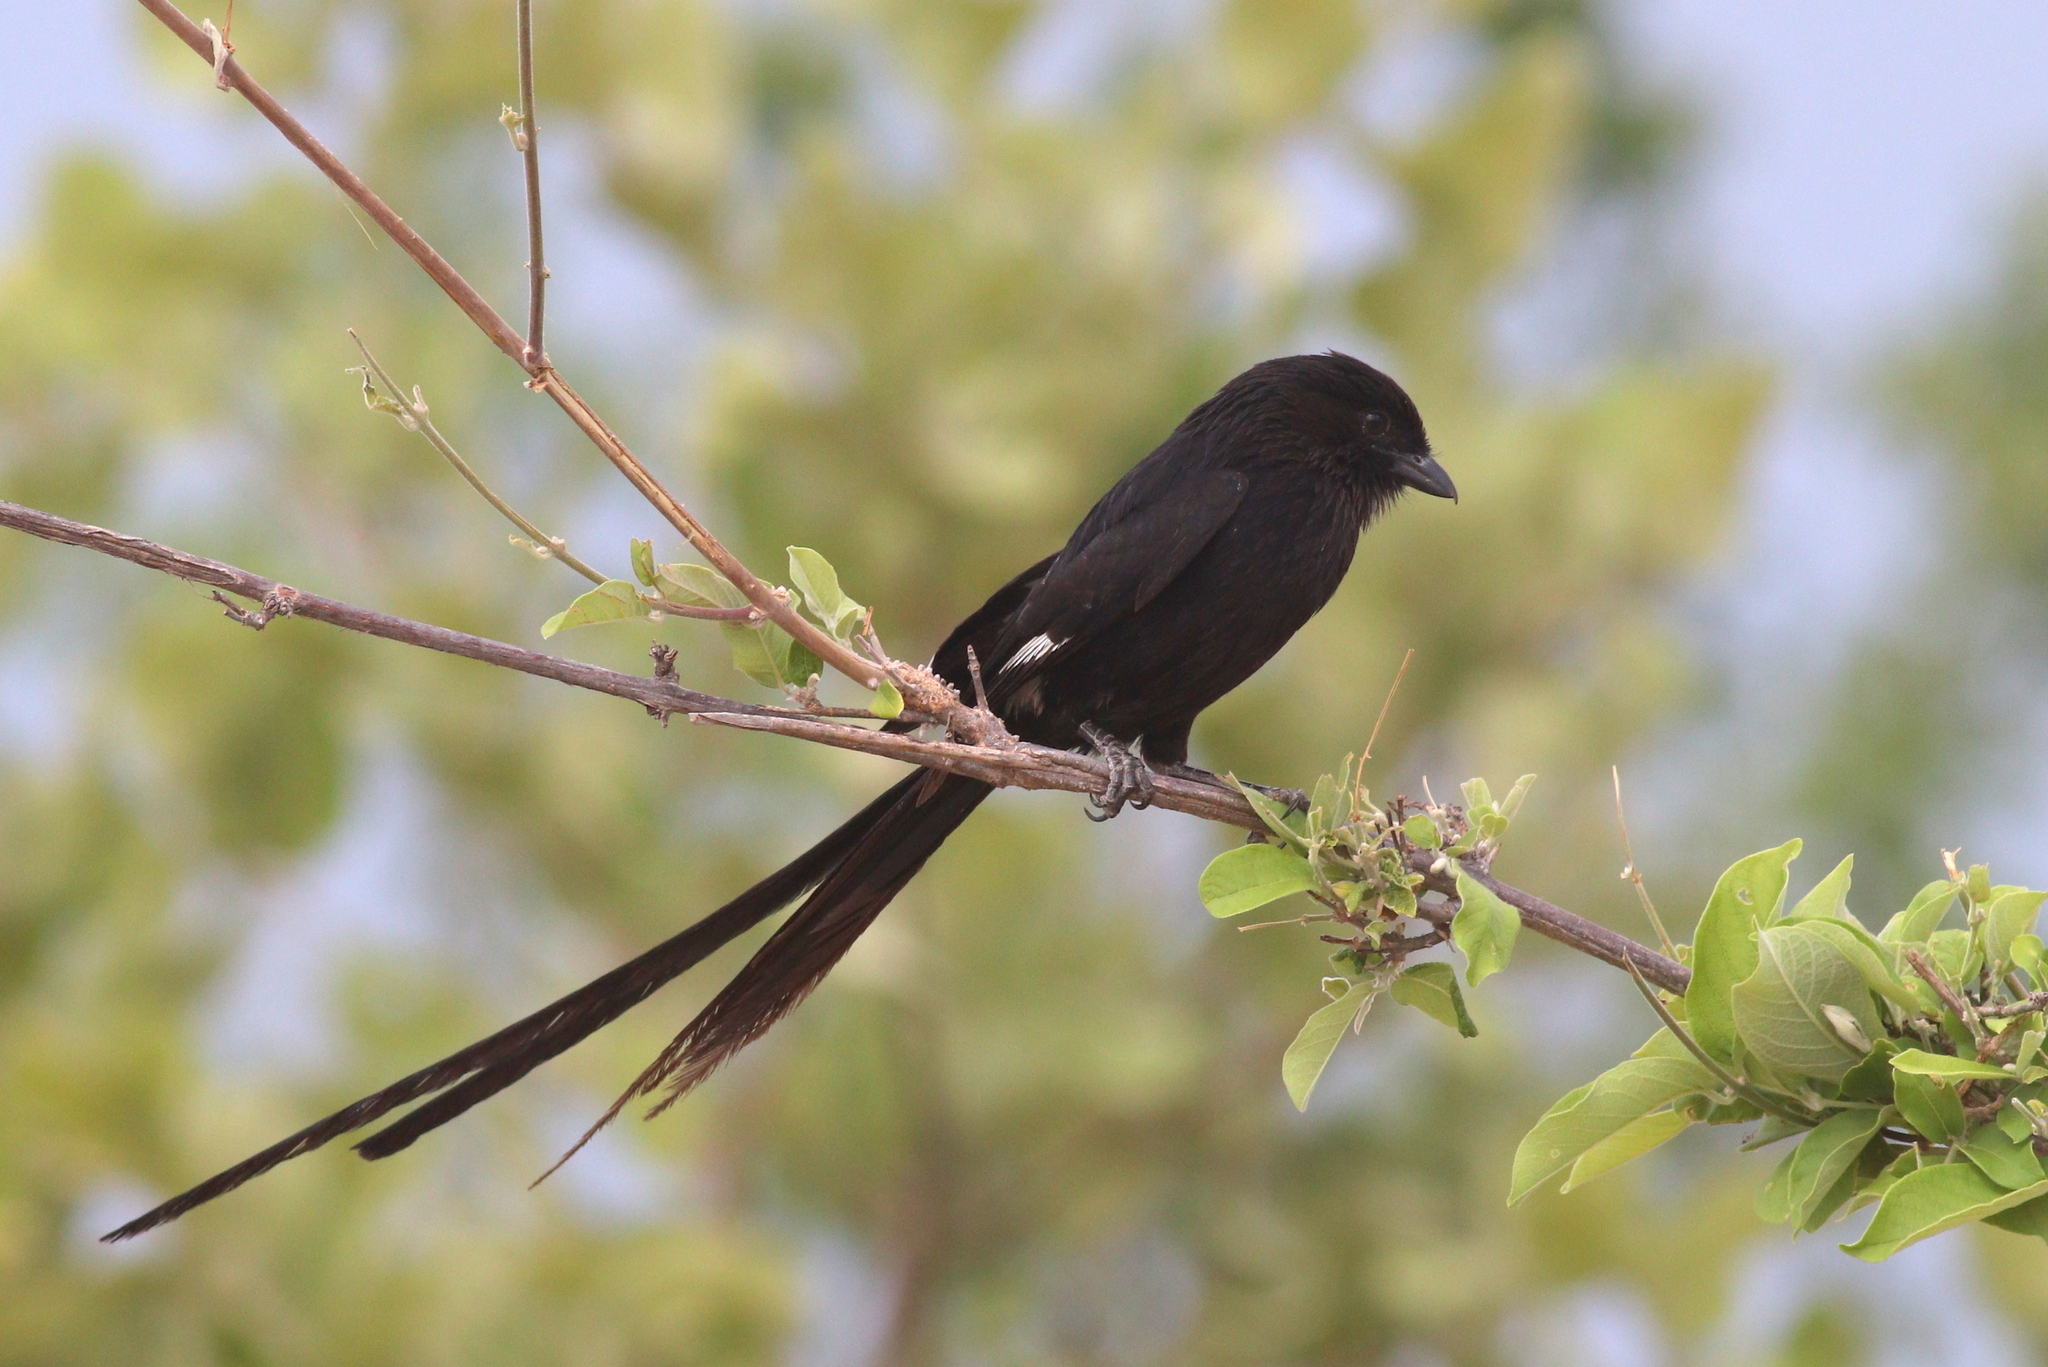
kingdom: Animalia
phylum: Chordata
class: Aves
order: Passeriformes
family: Laniidae
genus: Urolestes
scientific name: Urolestes melanoleucus
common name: Magpie shrike
